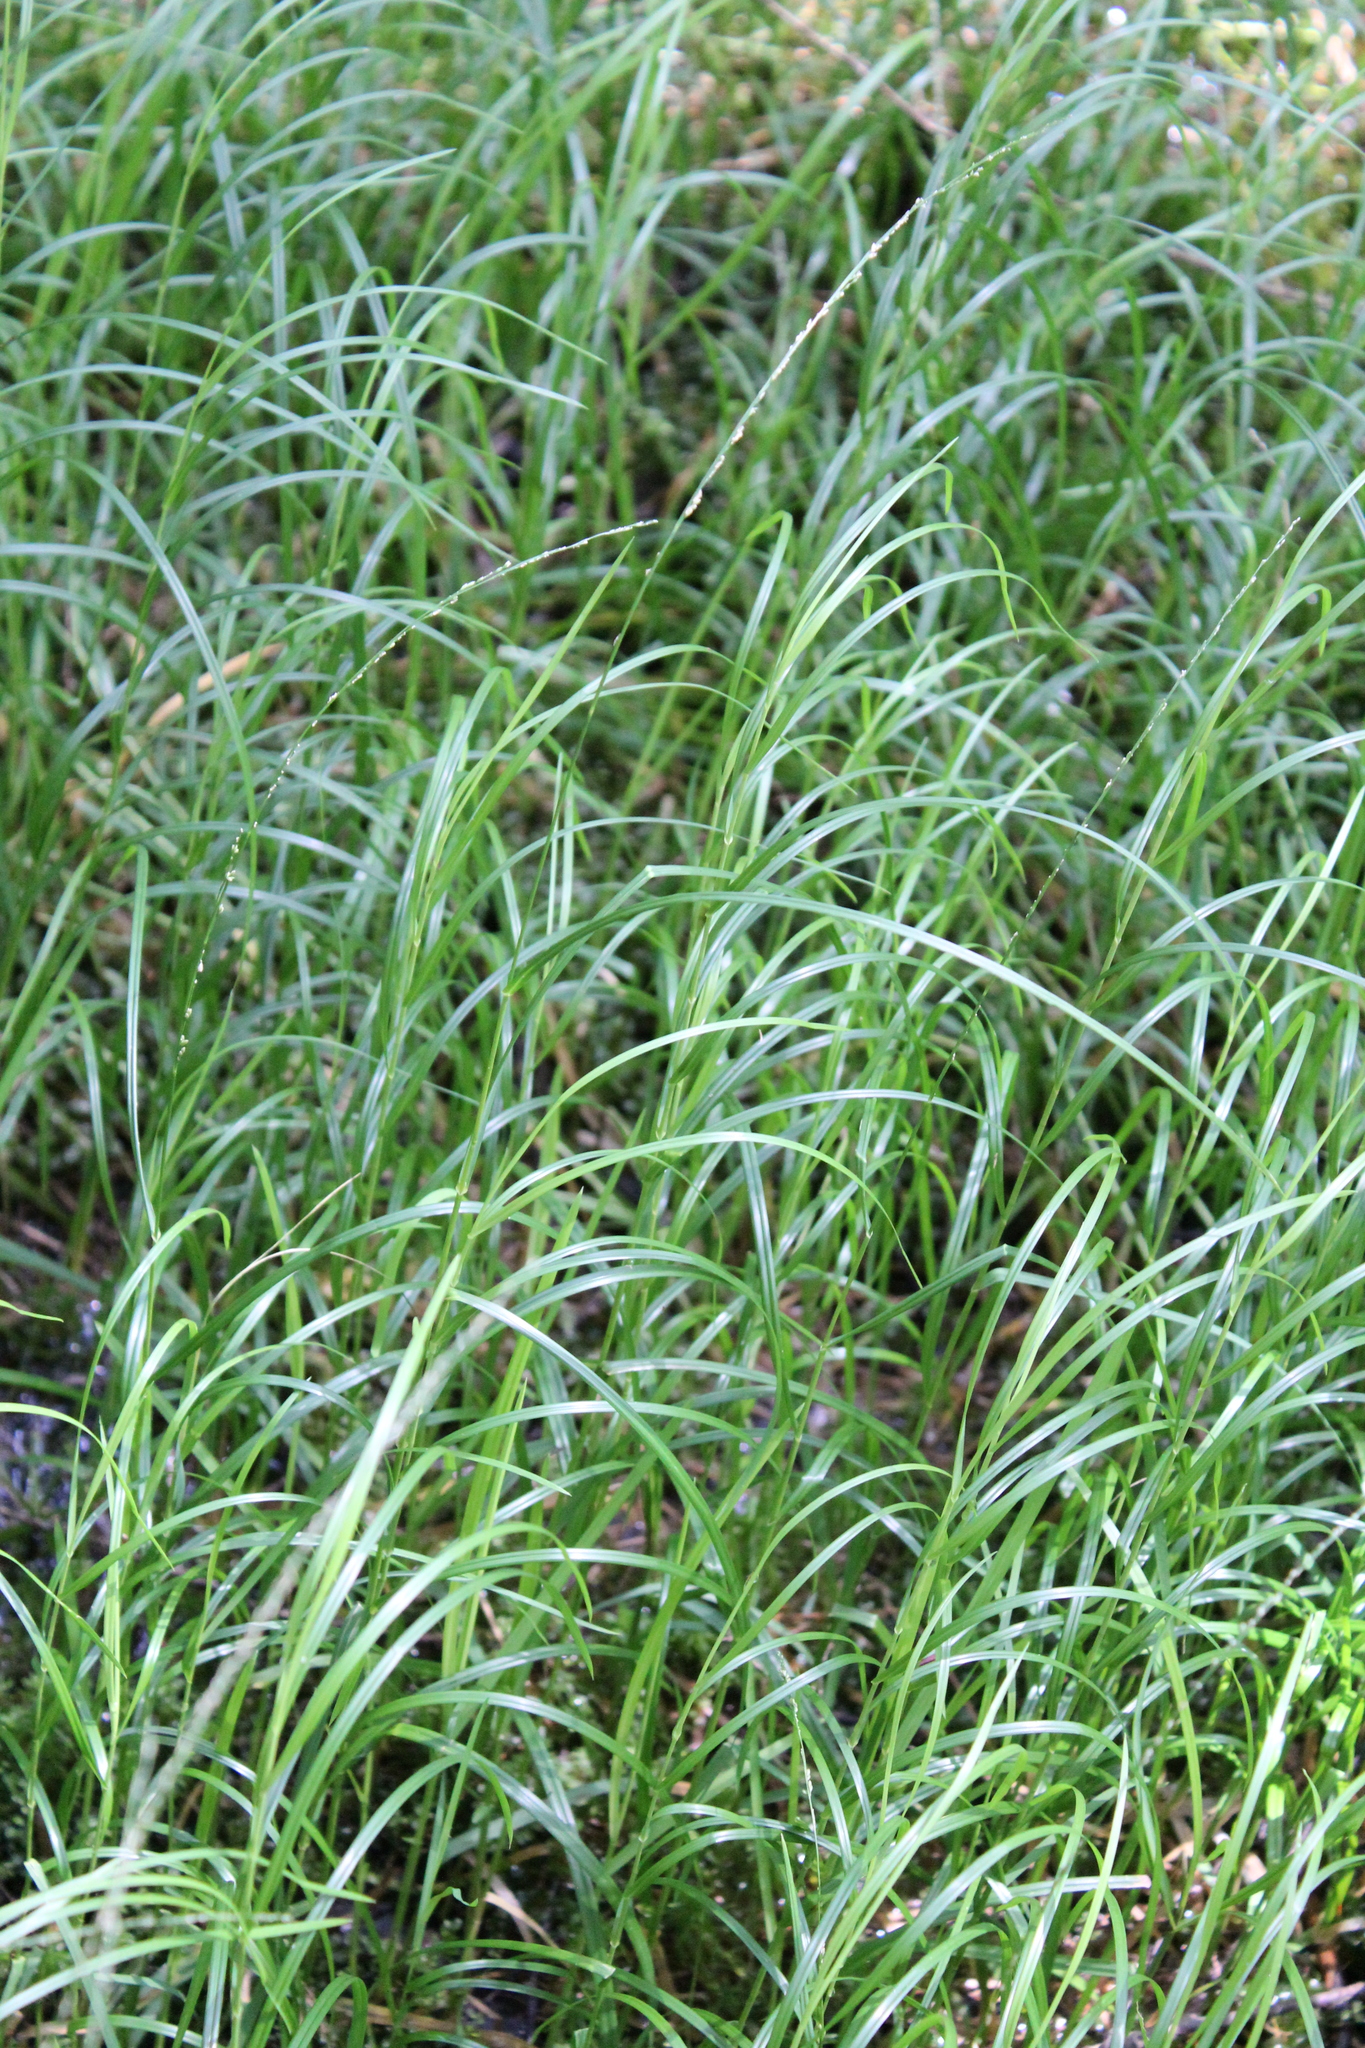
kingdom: Plantae
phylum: Tracheophyta
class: Liliopsida
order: Poales
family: Poaceae
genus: Glyceria
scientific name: Glyceria melicaria
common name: Long mannagrass
